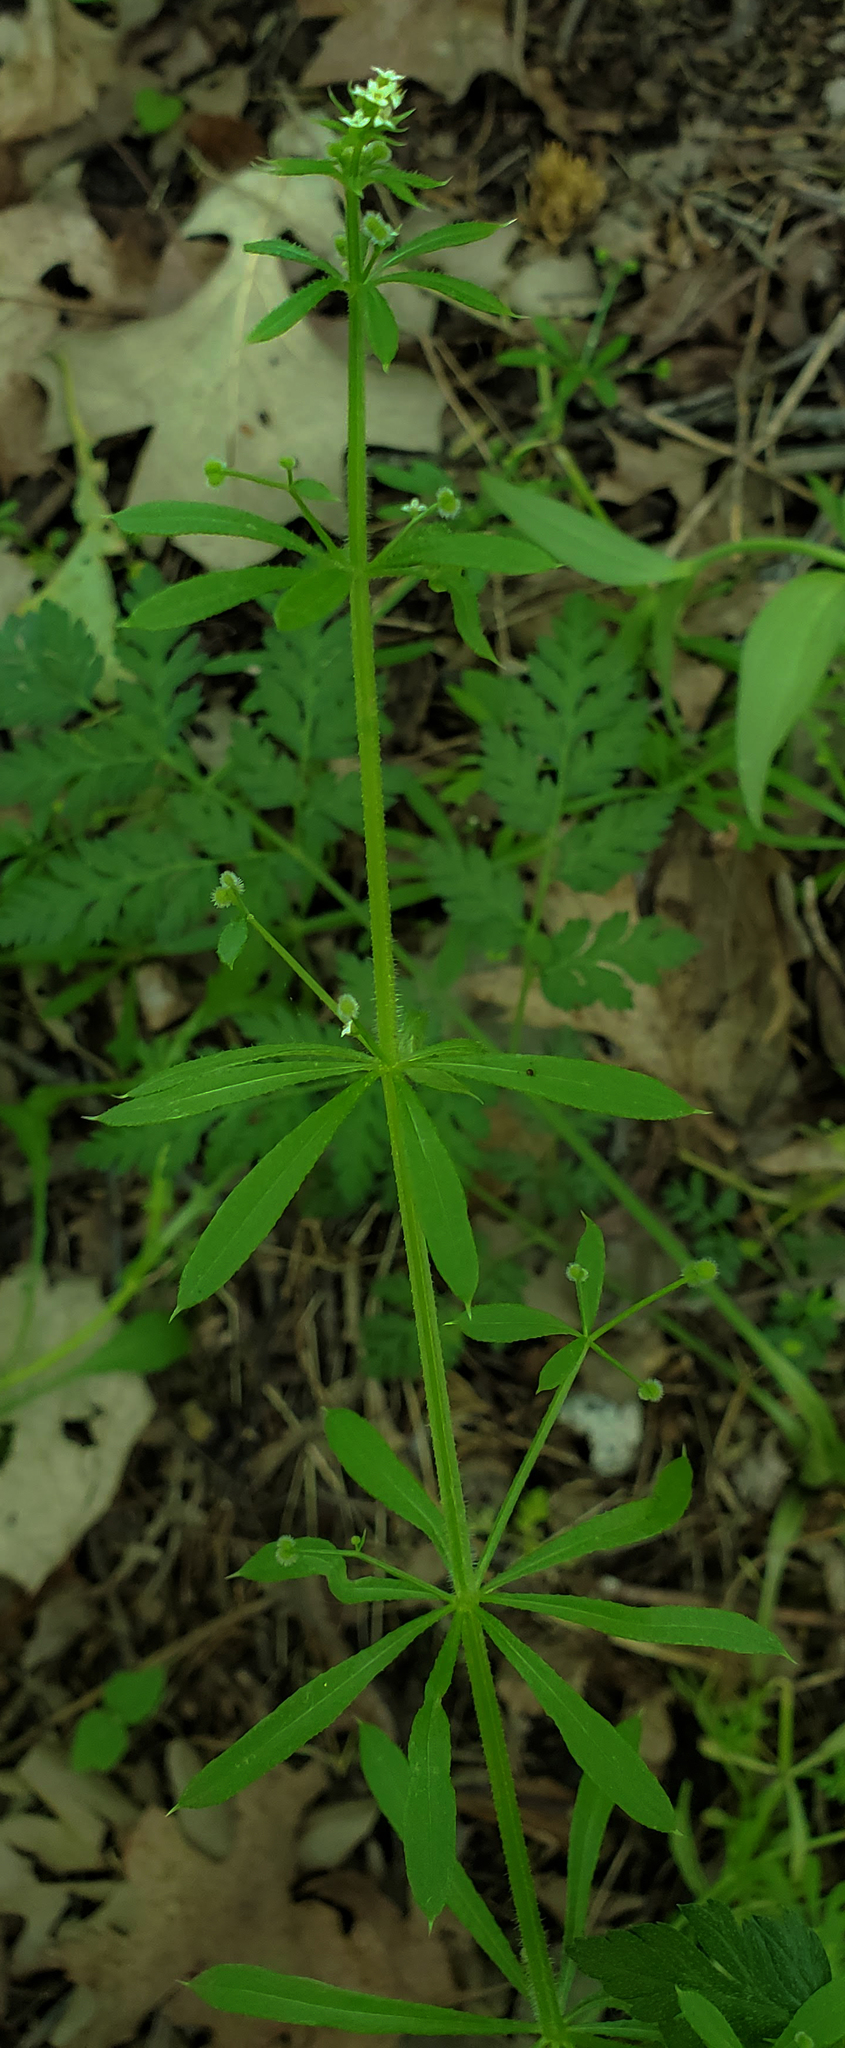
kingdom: Plantae
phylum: Tracheophyta
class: Magnoliopsida
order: Gentianales
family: Rubiaceae
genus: Galium
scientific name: Galium aparine
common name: Cleavers
